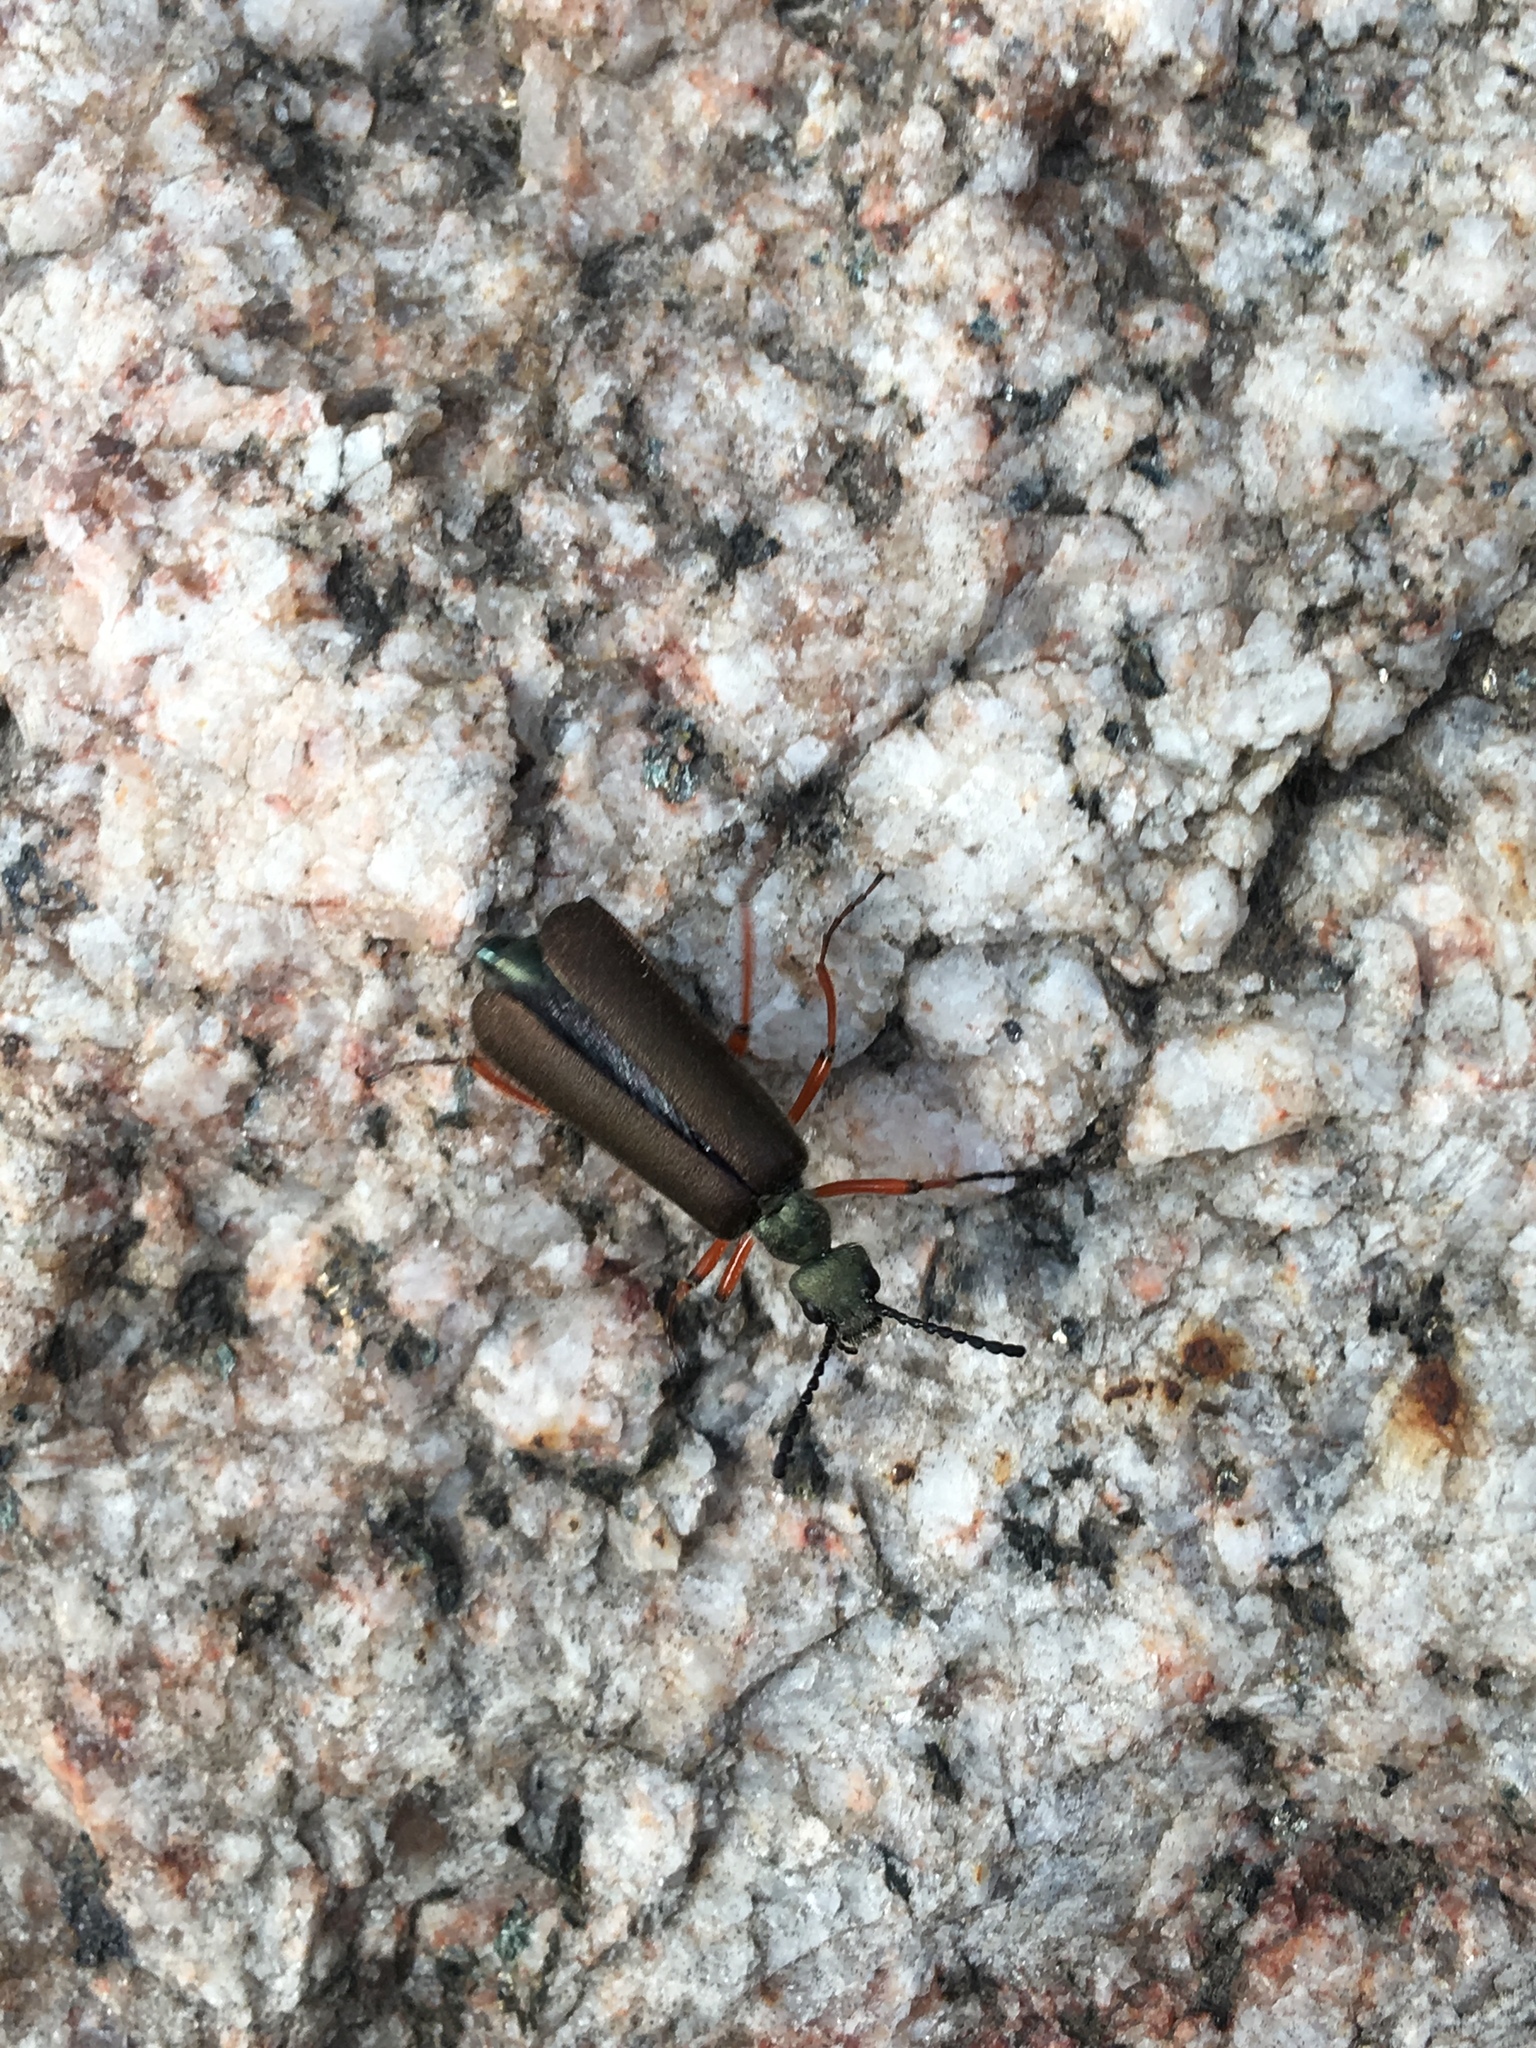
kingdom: Animalia
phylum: Arthropoda
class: Insecta
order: Coleoptera
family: Meloidae
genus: Lytta
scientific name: Lytta aenea
